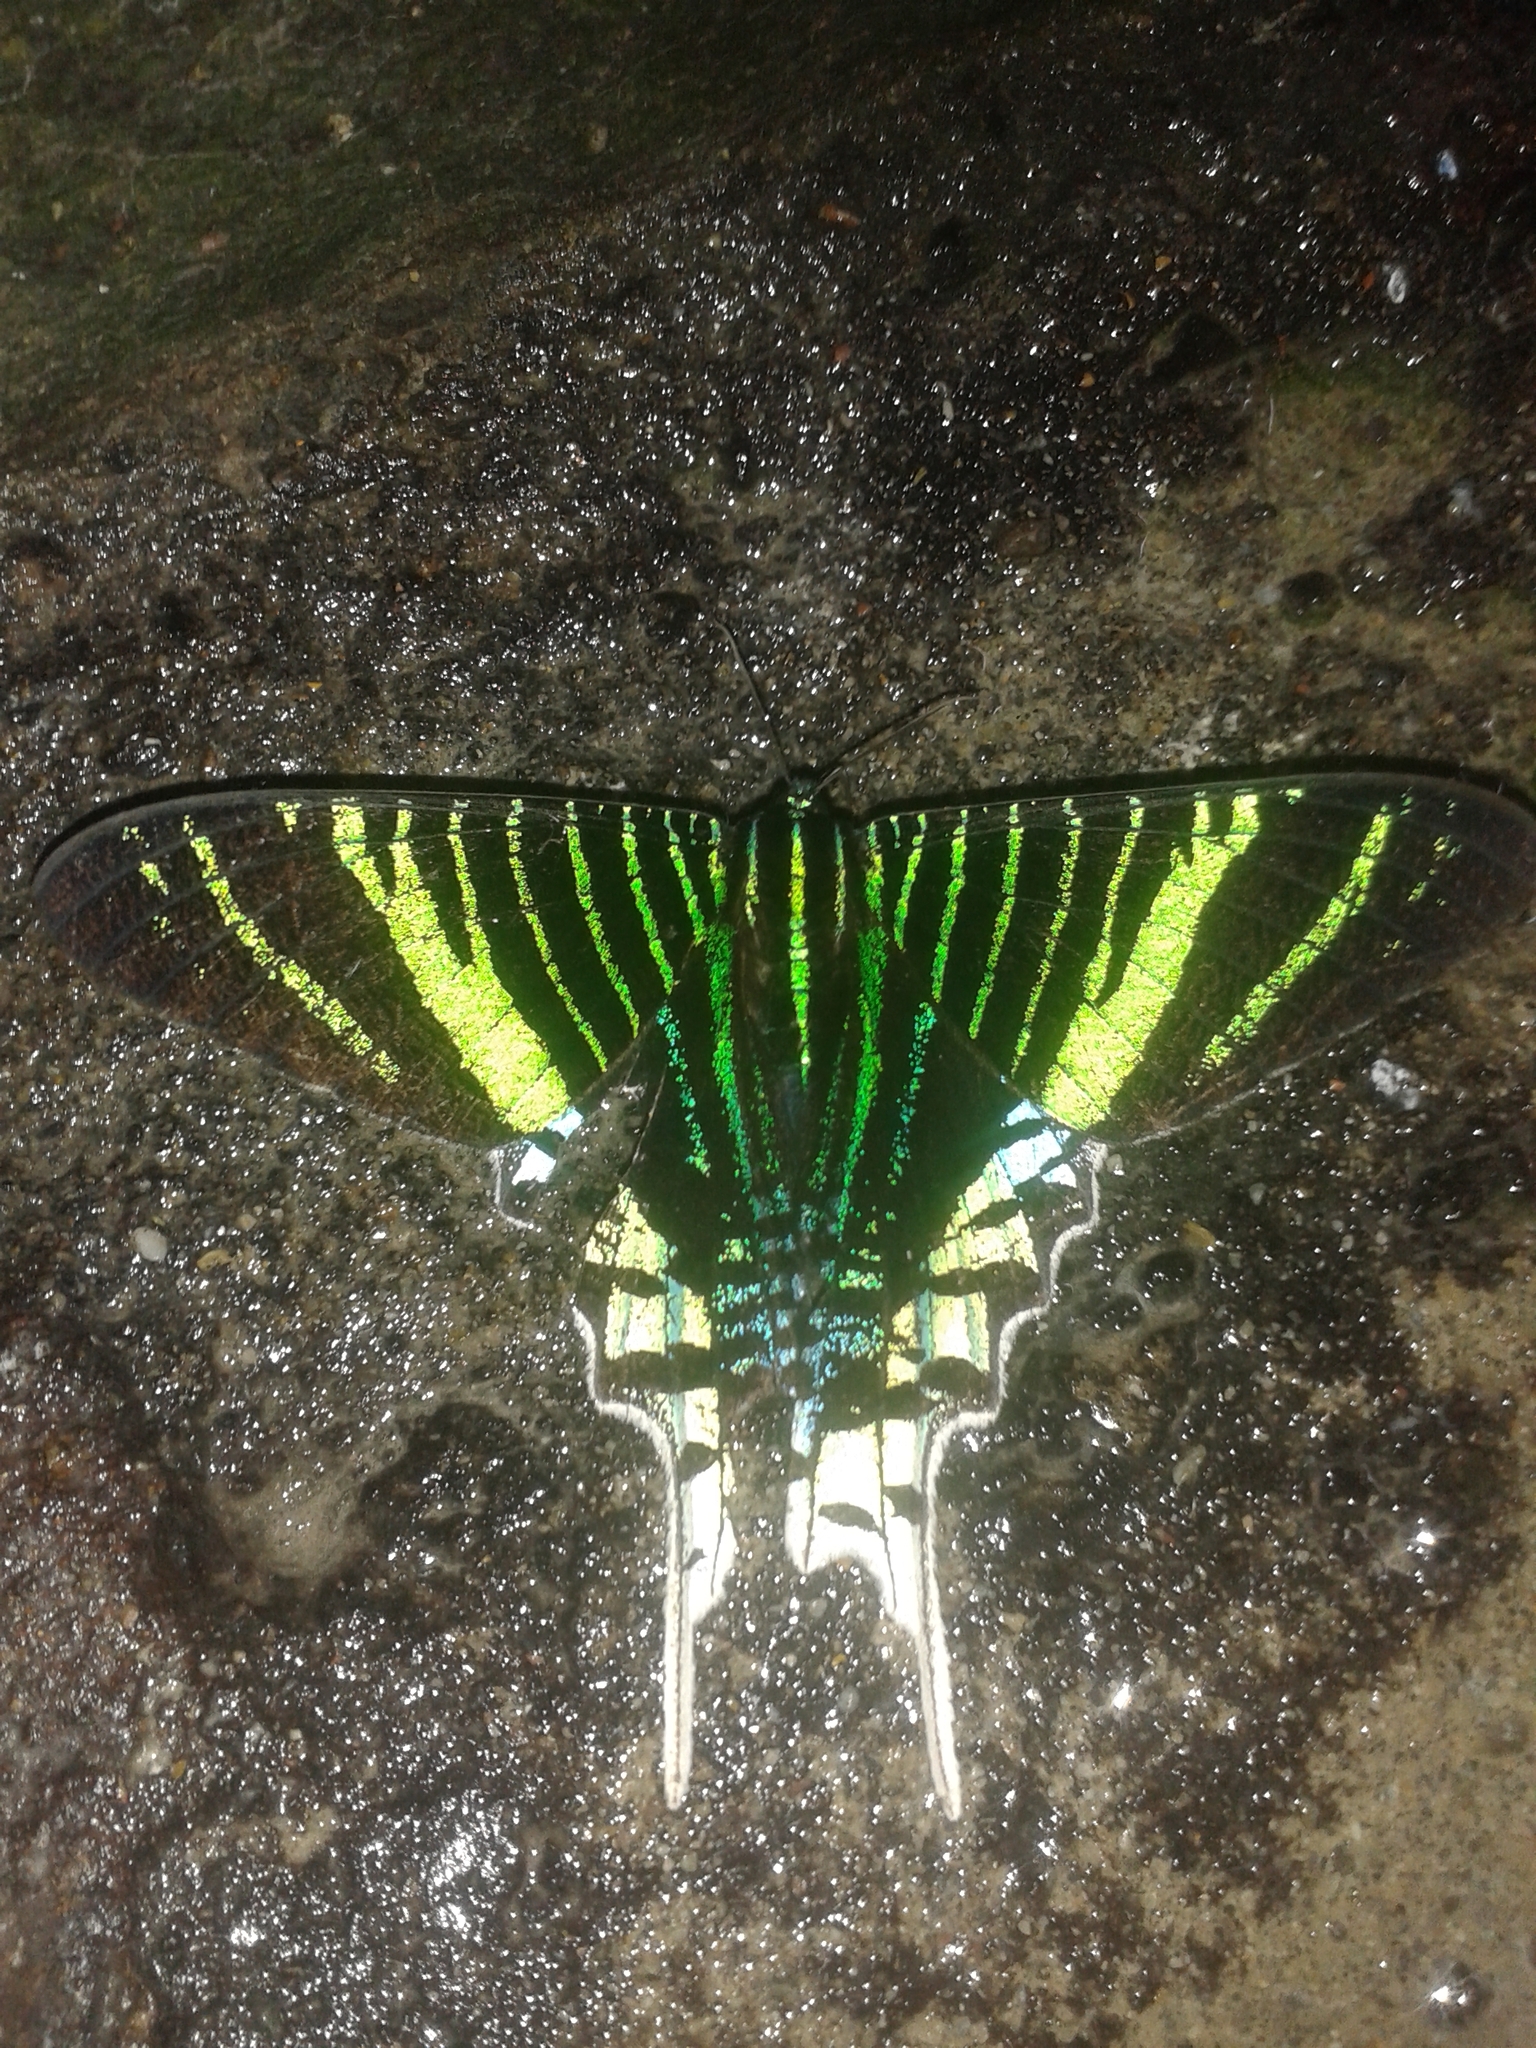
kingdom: Animalia
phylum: Arthropoda
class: Insecta
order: Lepidoptera
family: Uraniidae
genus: Urania
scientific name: Urania leilus
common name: Peacock moth
